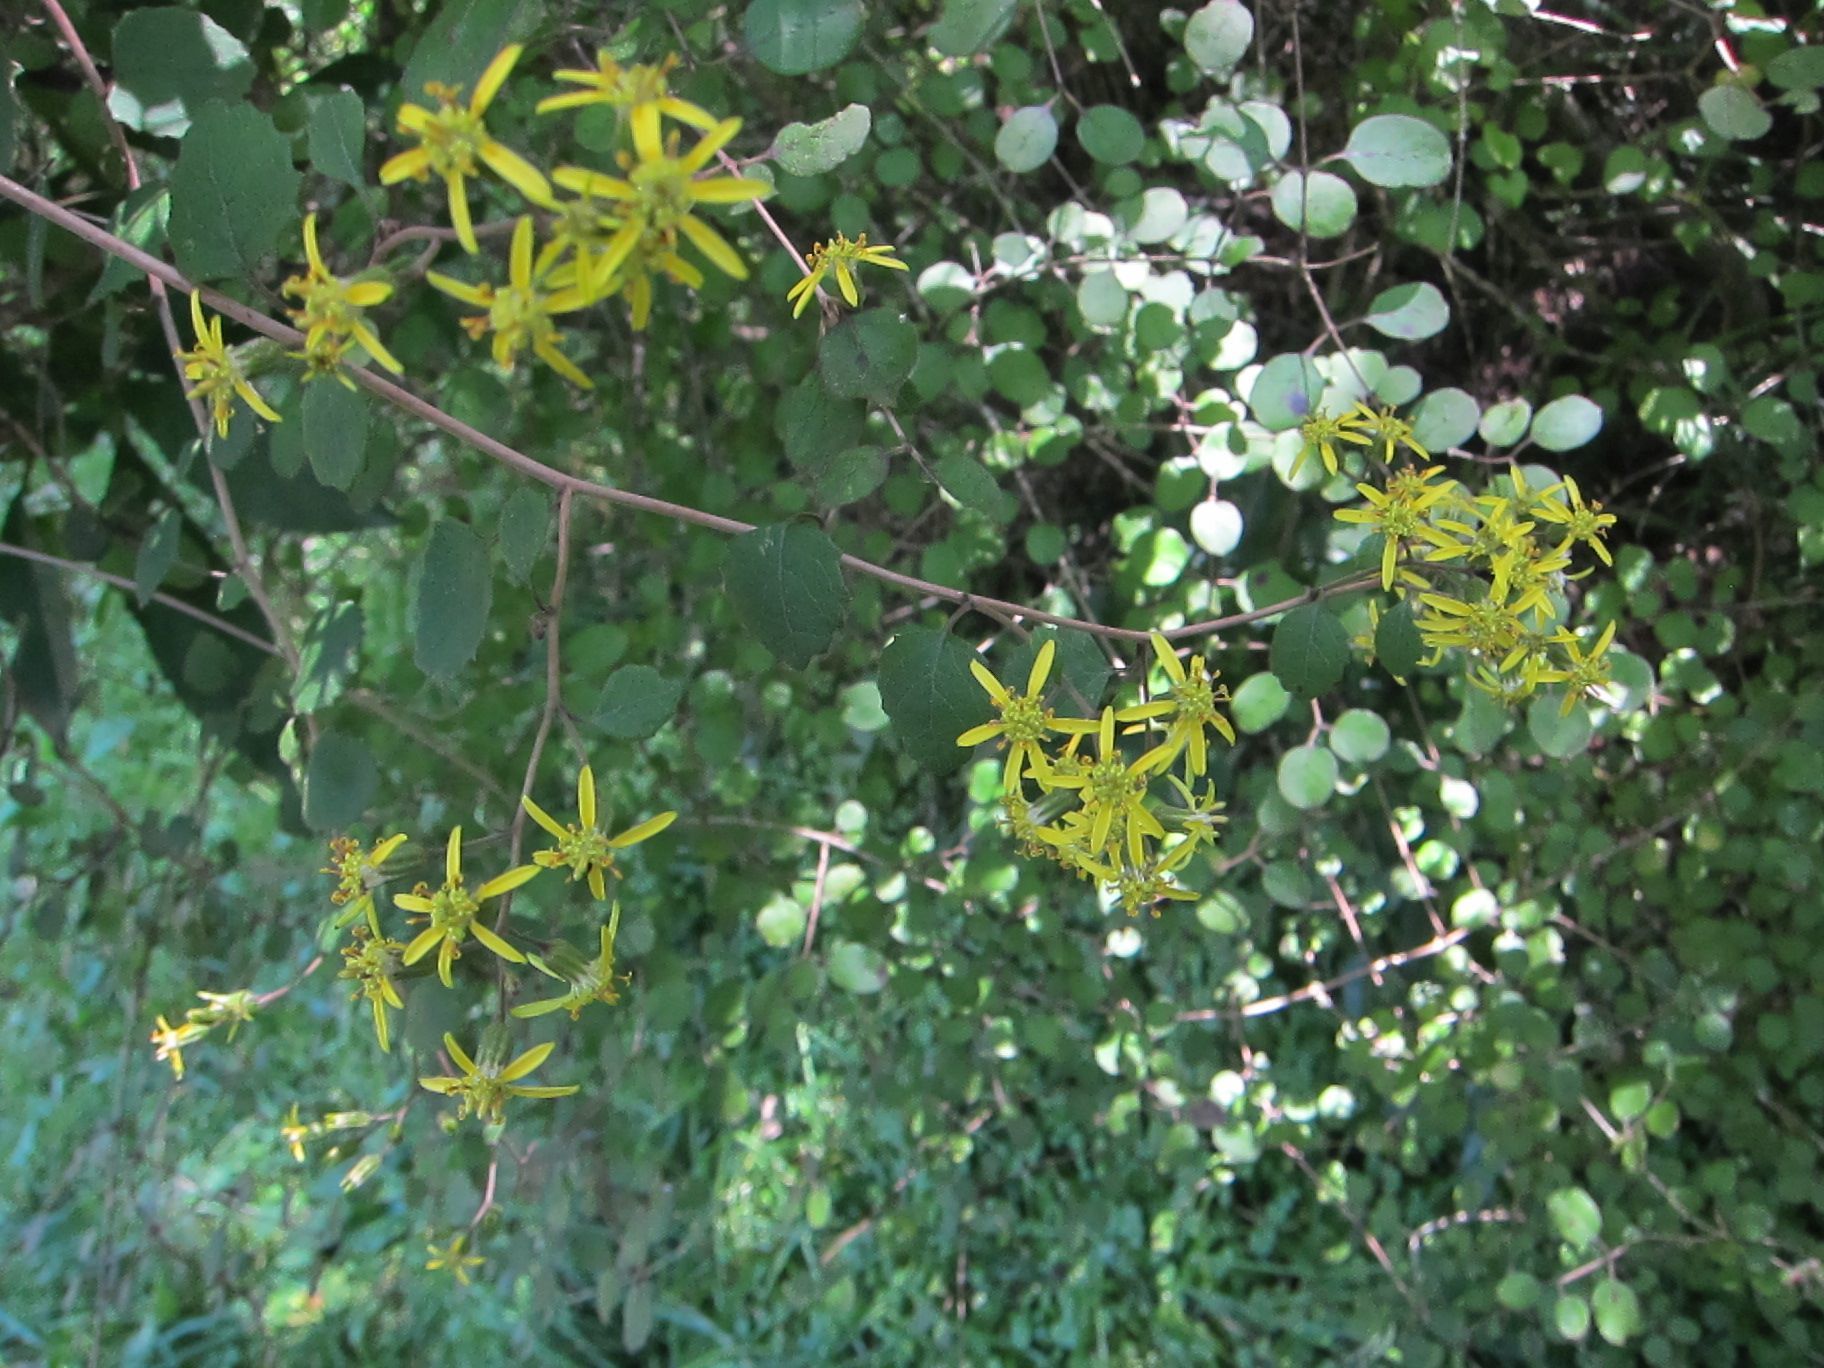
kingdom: Plantae
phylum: Tracheophyta
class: Magnoliopsida
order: Asterales
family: Asteraceae
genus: Brachyglottis
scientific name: Brachyglottis sciadophila
